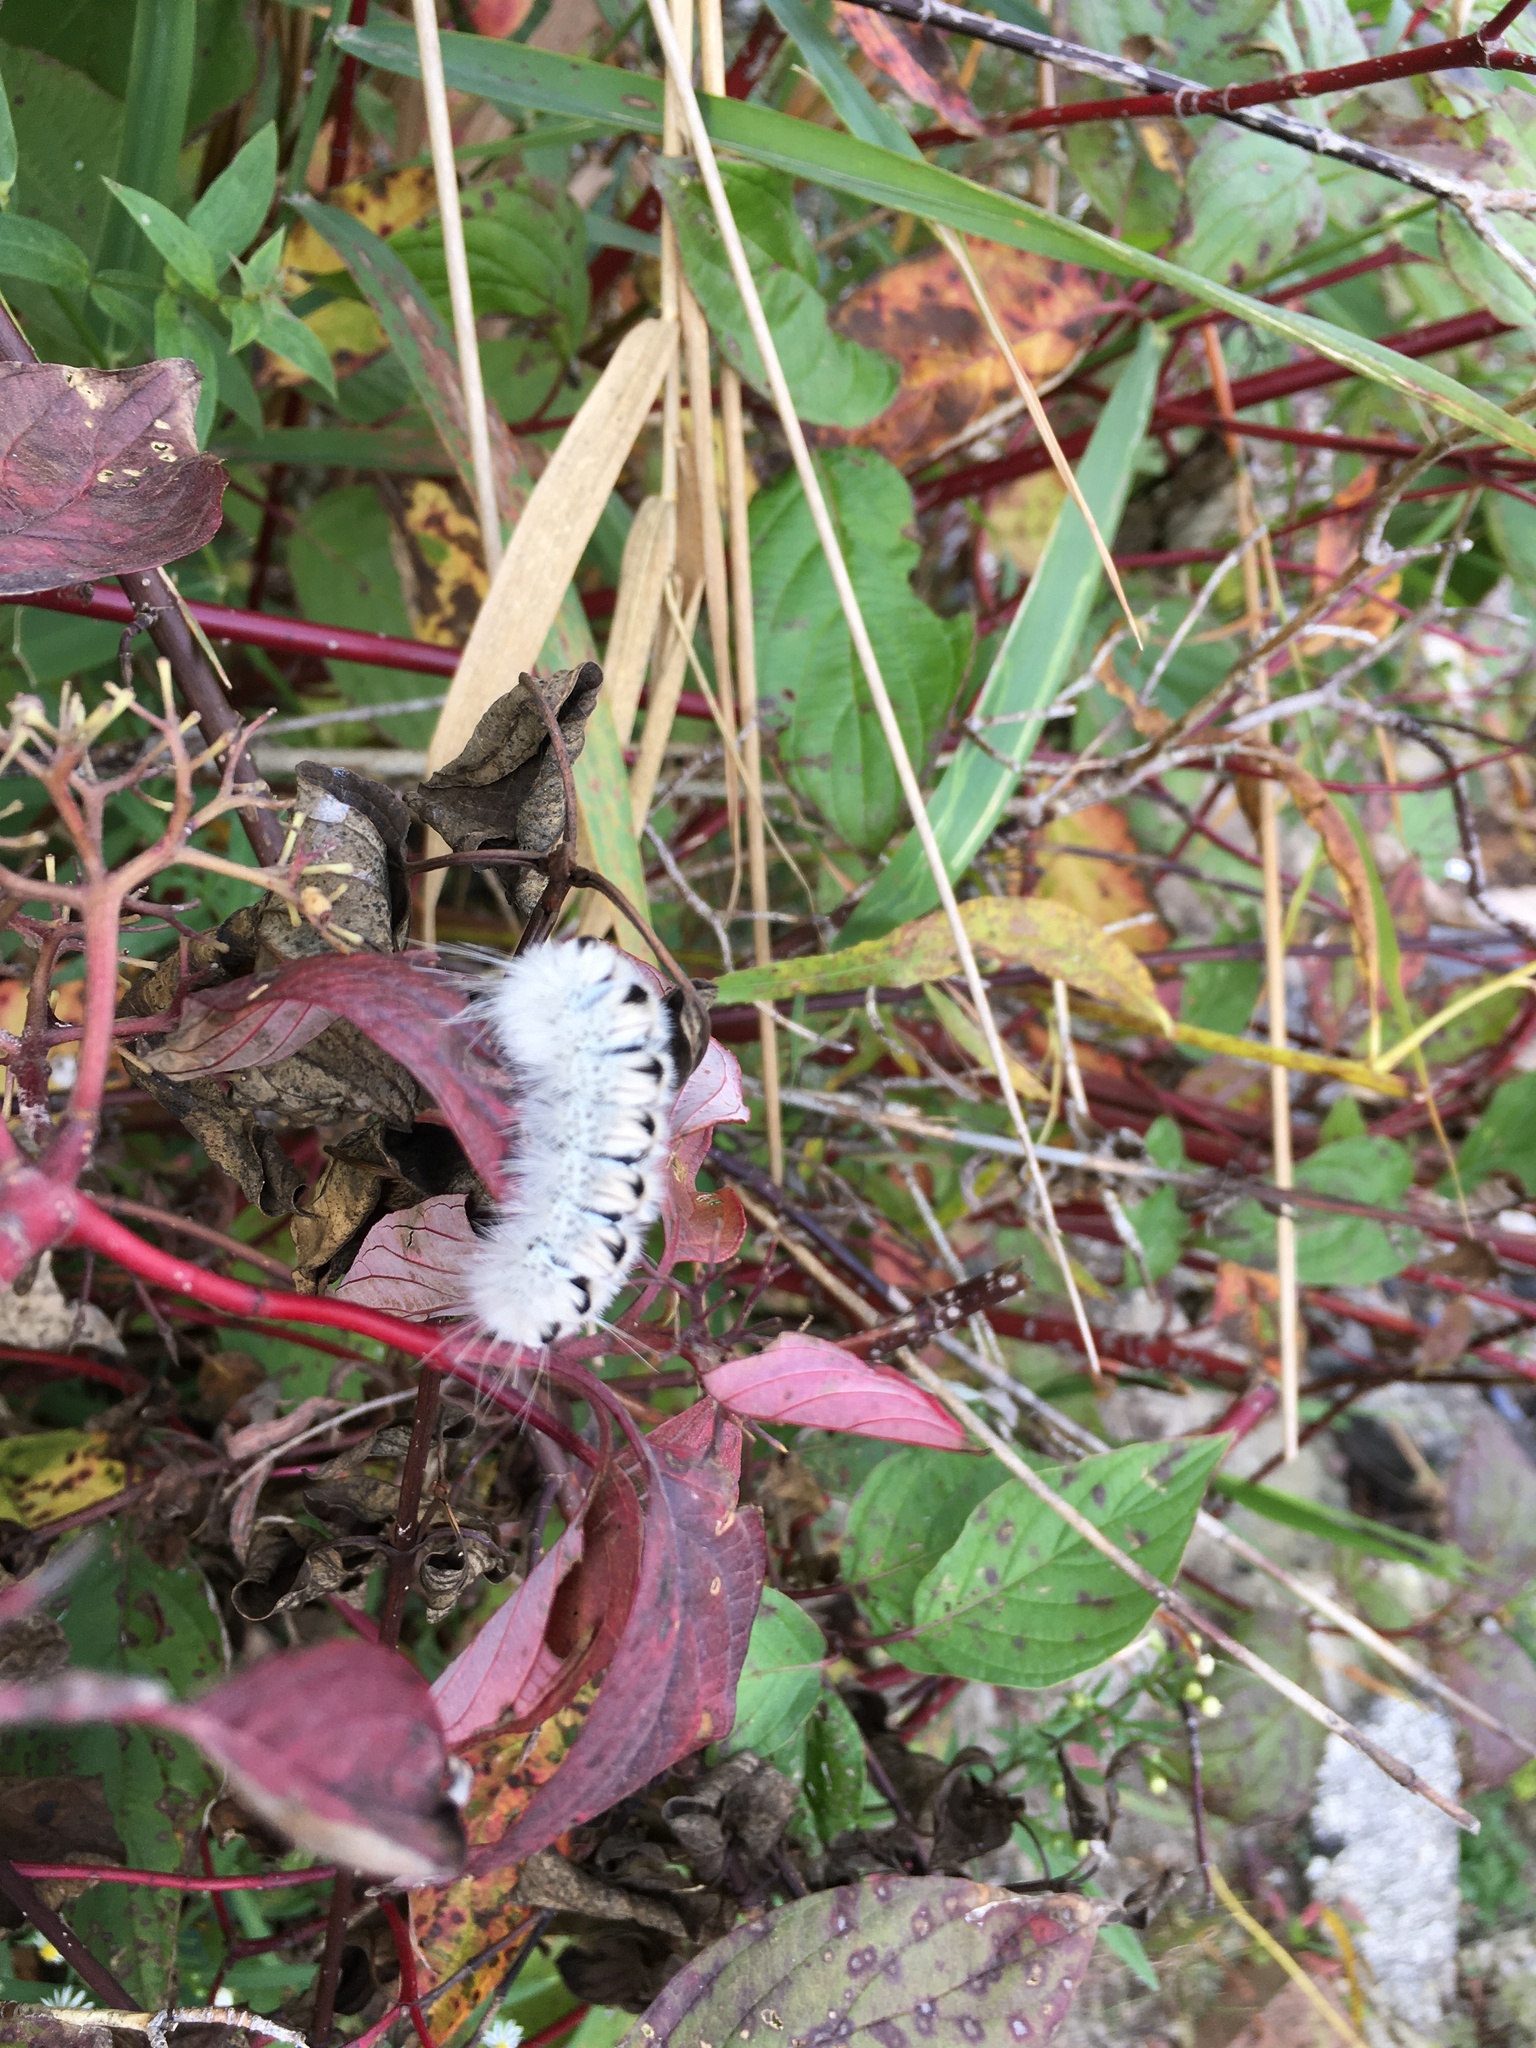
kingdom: Animalia
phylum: Arthropoda
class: Insecta
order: Lepidoptera
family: Erebidae
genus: Lophocampa
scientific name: Lophocampa caryae
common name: Hickory tussock moth
